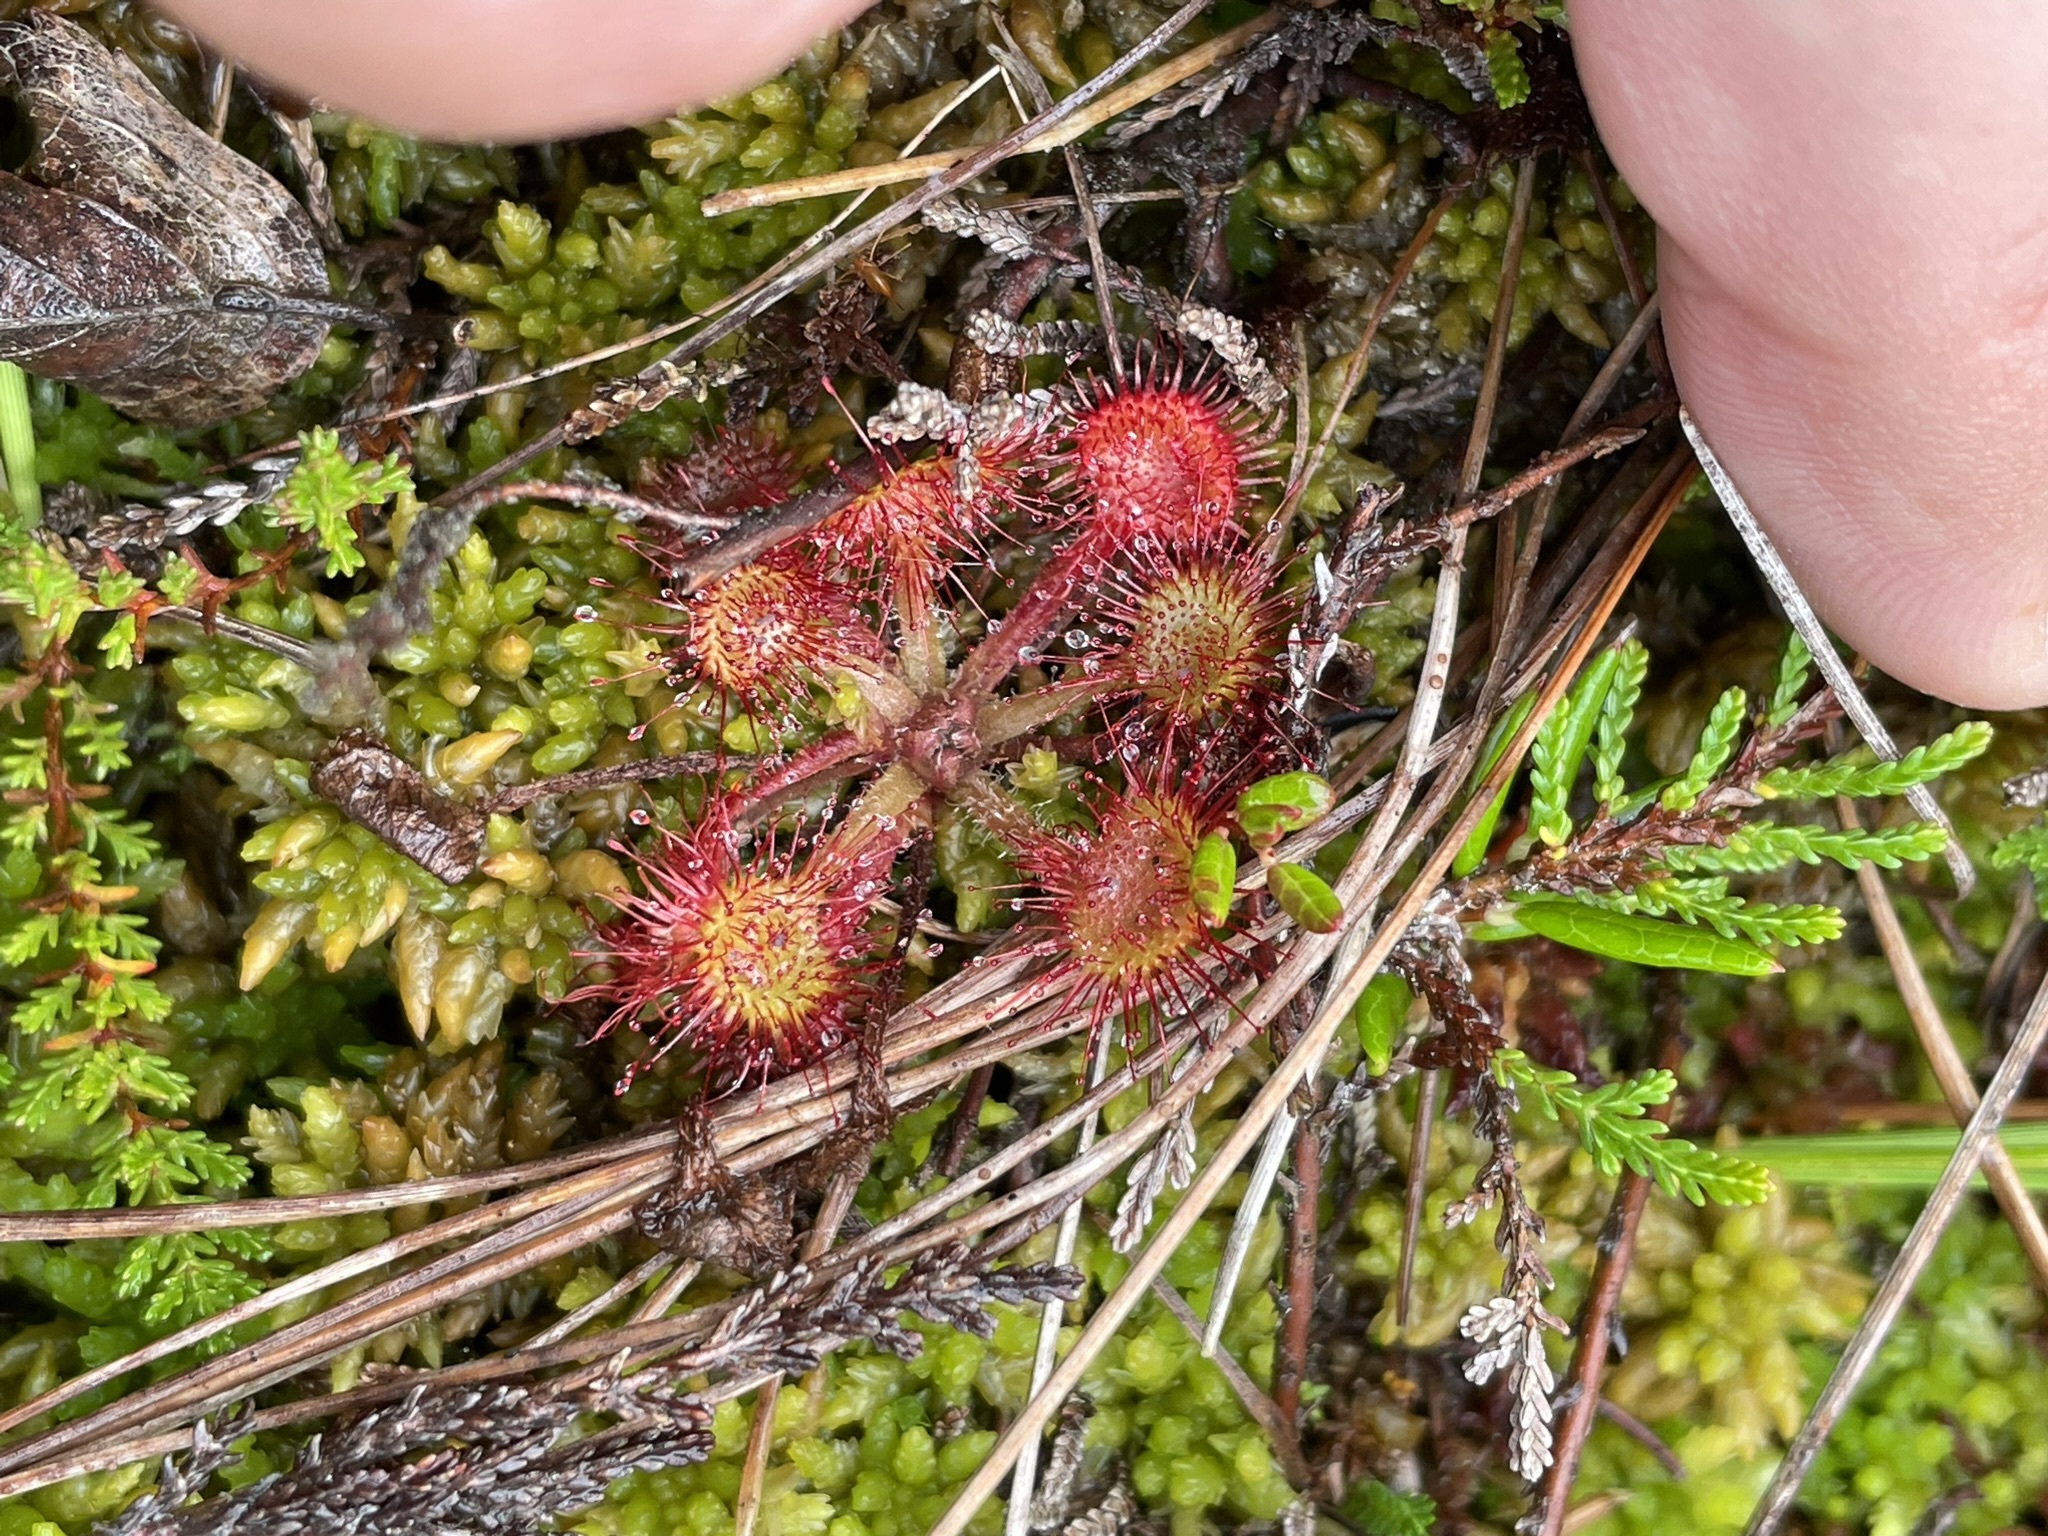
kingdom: Plantae
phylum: Tracheophyta
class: Magnoliopsida
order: Caryophyllales
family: Droseraceae
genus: Drosera
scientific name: Drosera rotundifolia
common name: Round-leaved sundew
